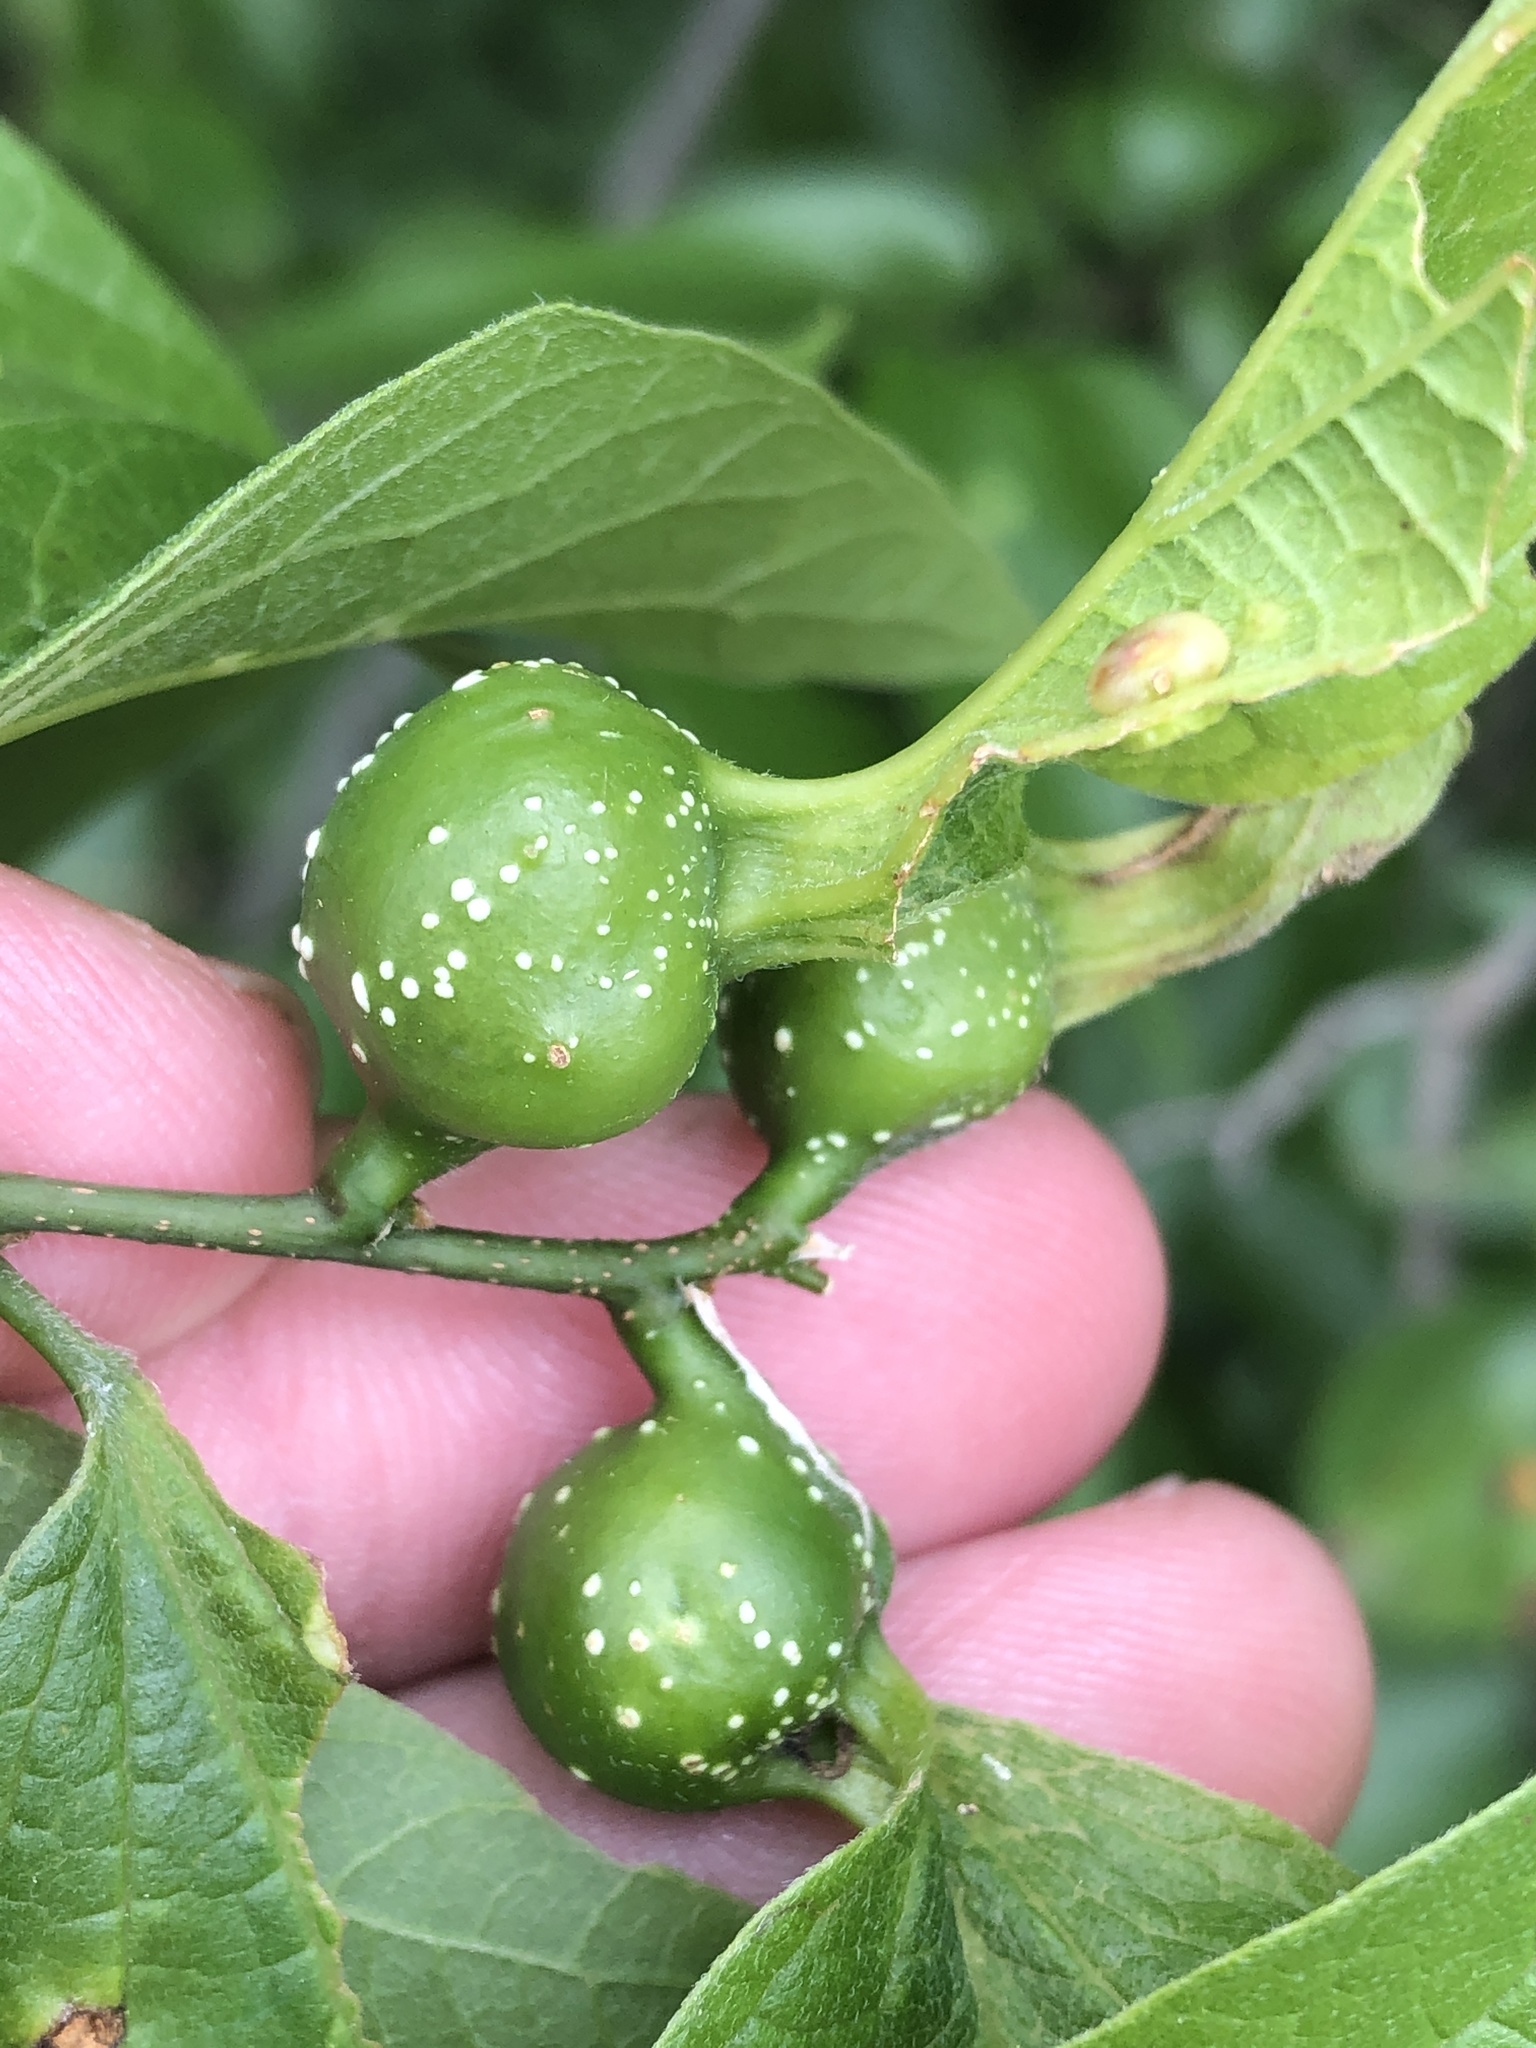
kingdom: Animalia
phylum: Arthropoda
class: Insecta
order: Hemiptera
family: Aphalaridae
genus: Pachypsylla
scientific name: Pachypsylla venusta
